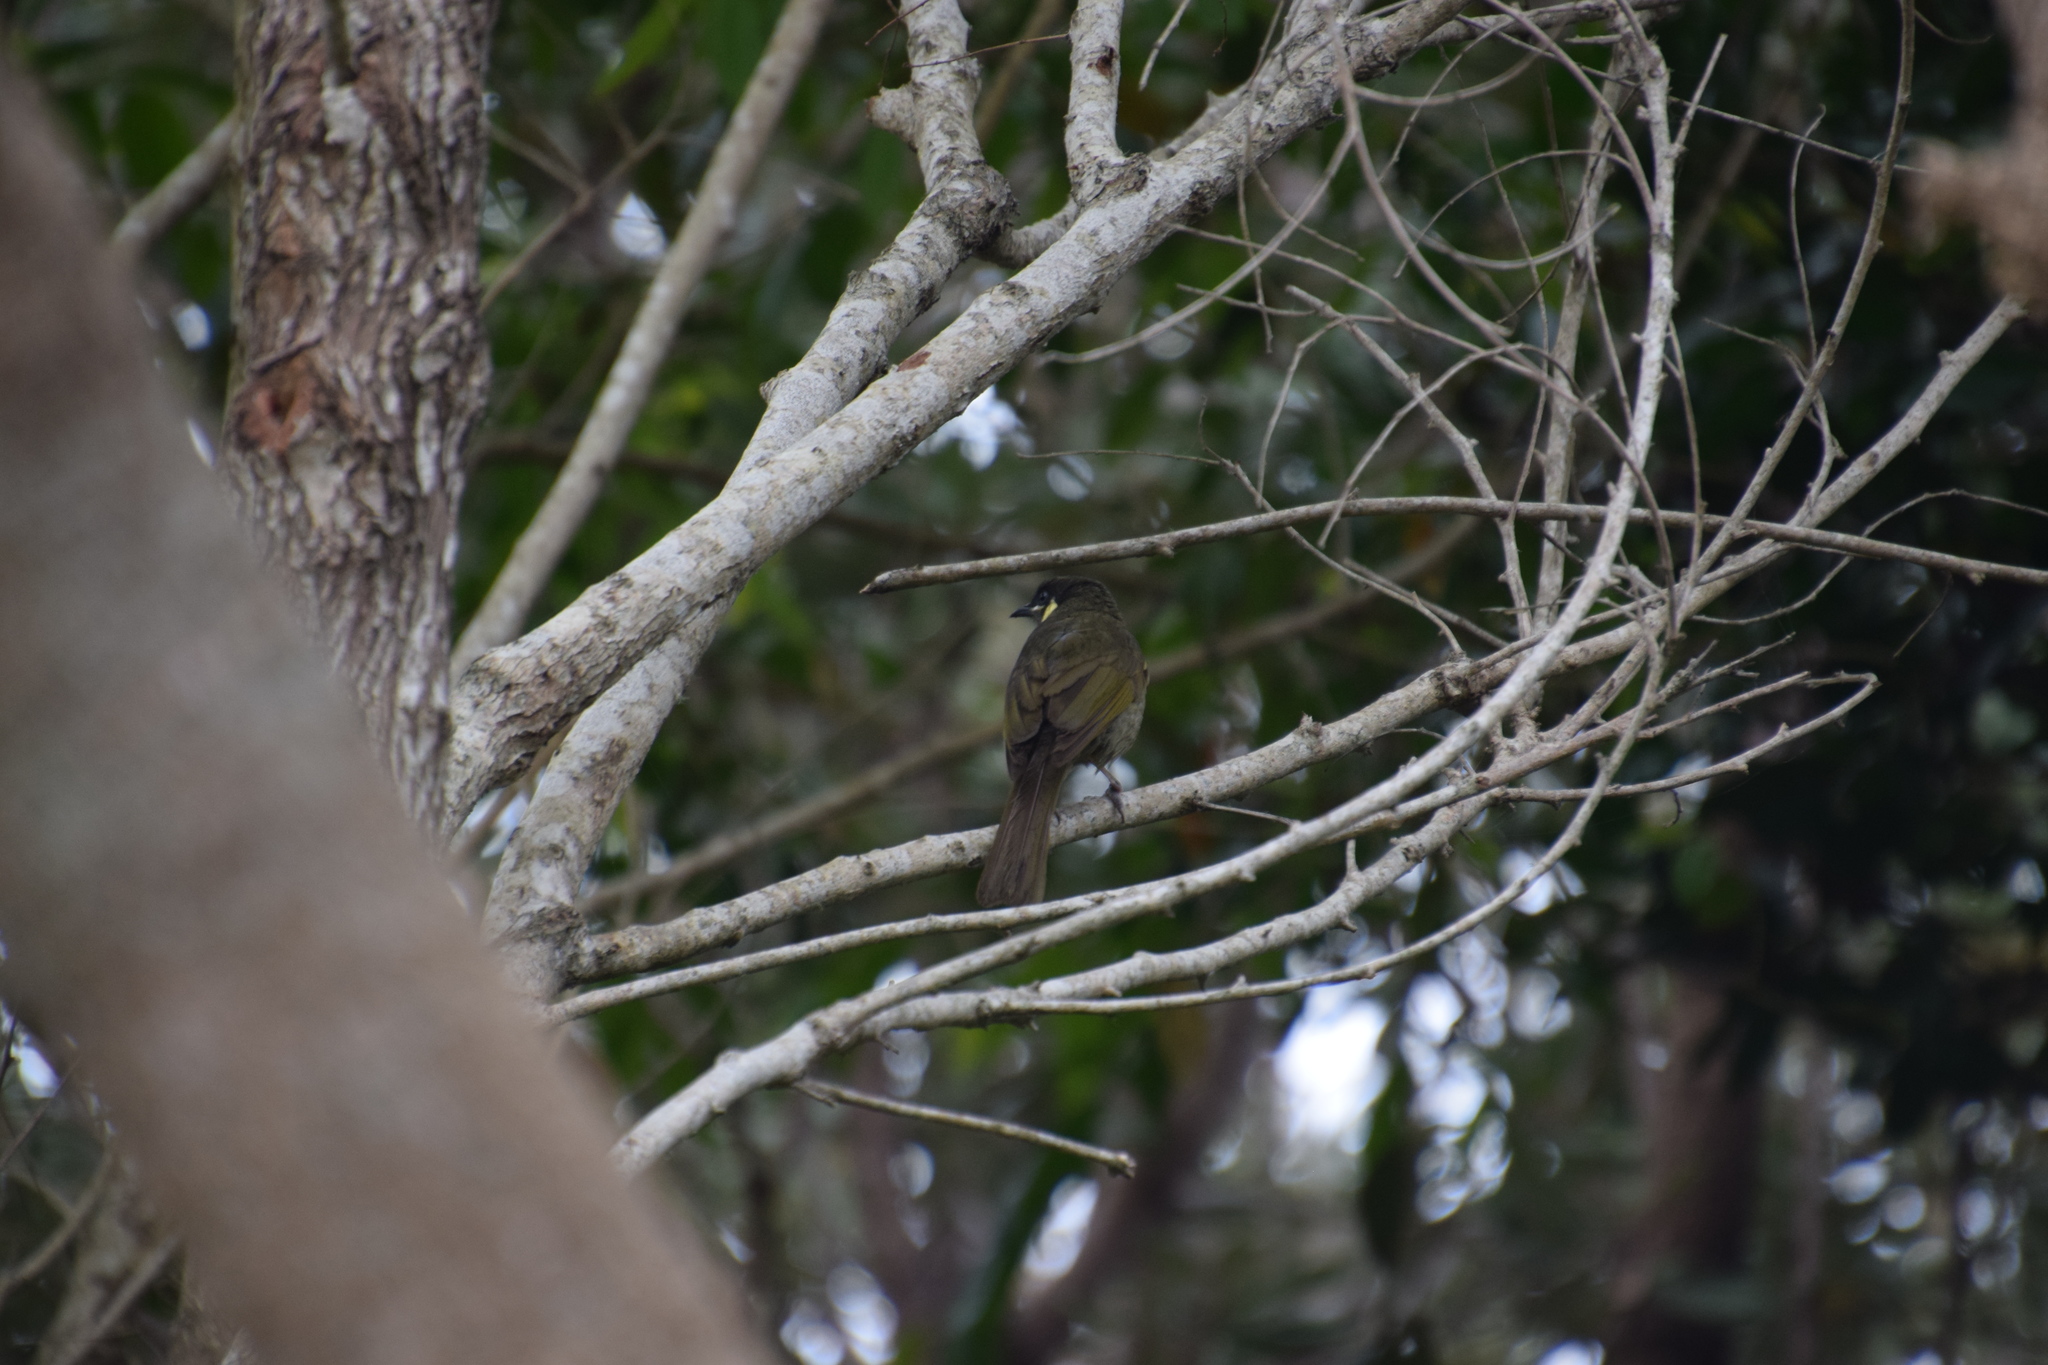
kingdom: Animalia
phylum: Chordata
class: Aves
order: Passeriformes
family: Meliphagidae
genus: Meliphaga
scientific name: Meliphaga lewinii
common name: Lewin's honeyeater
